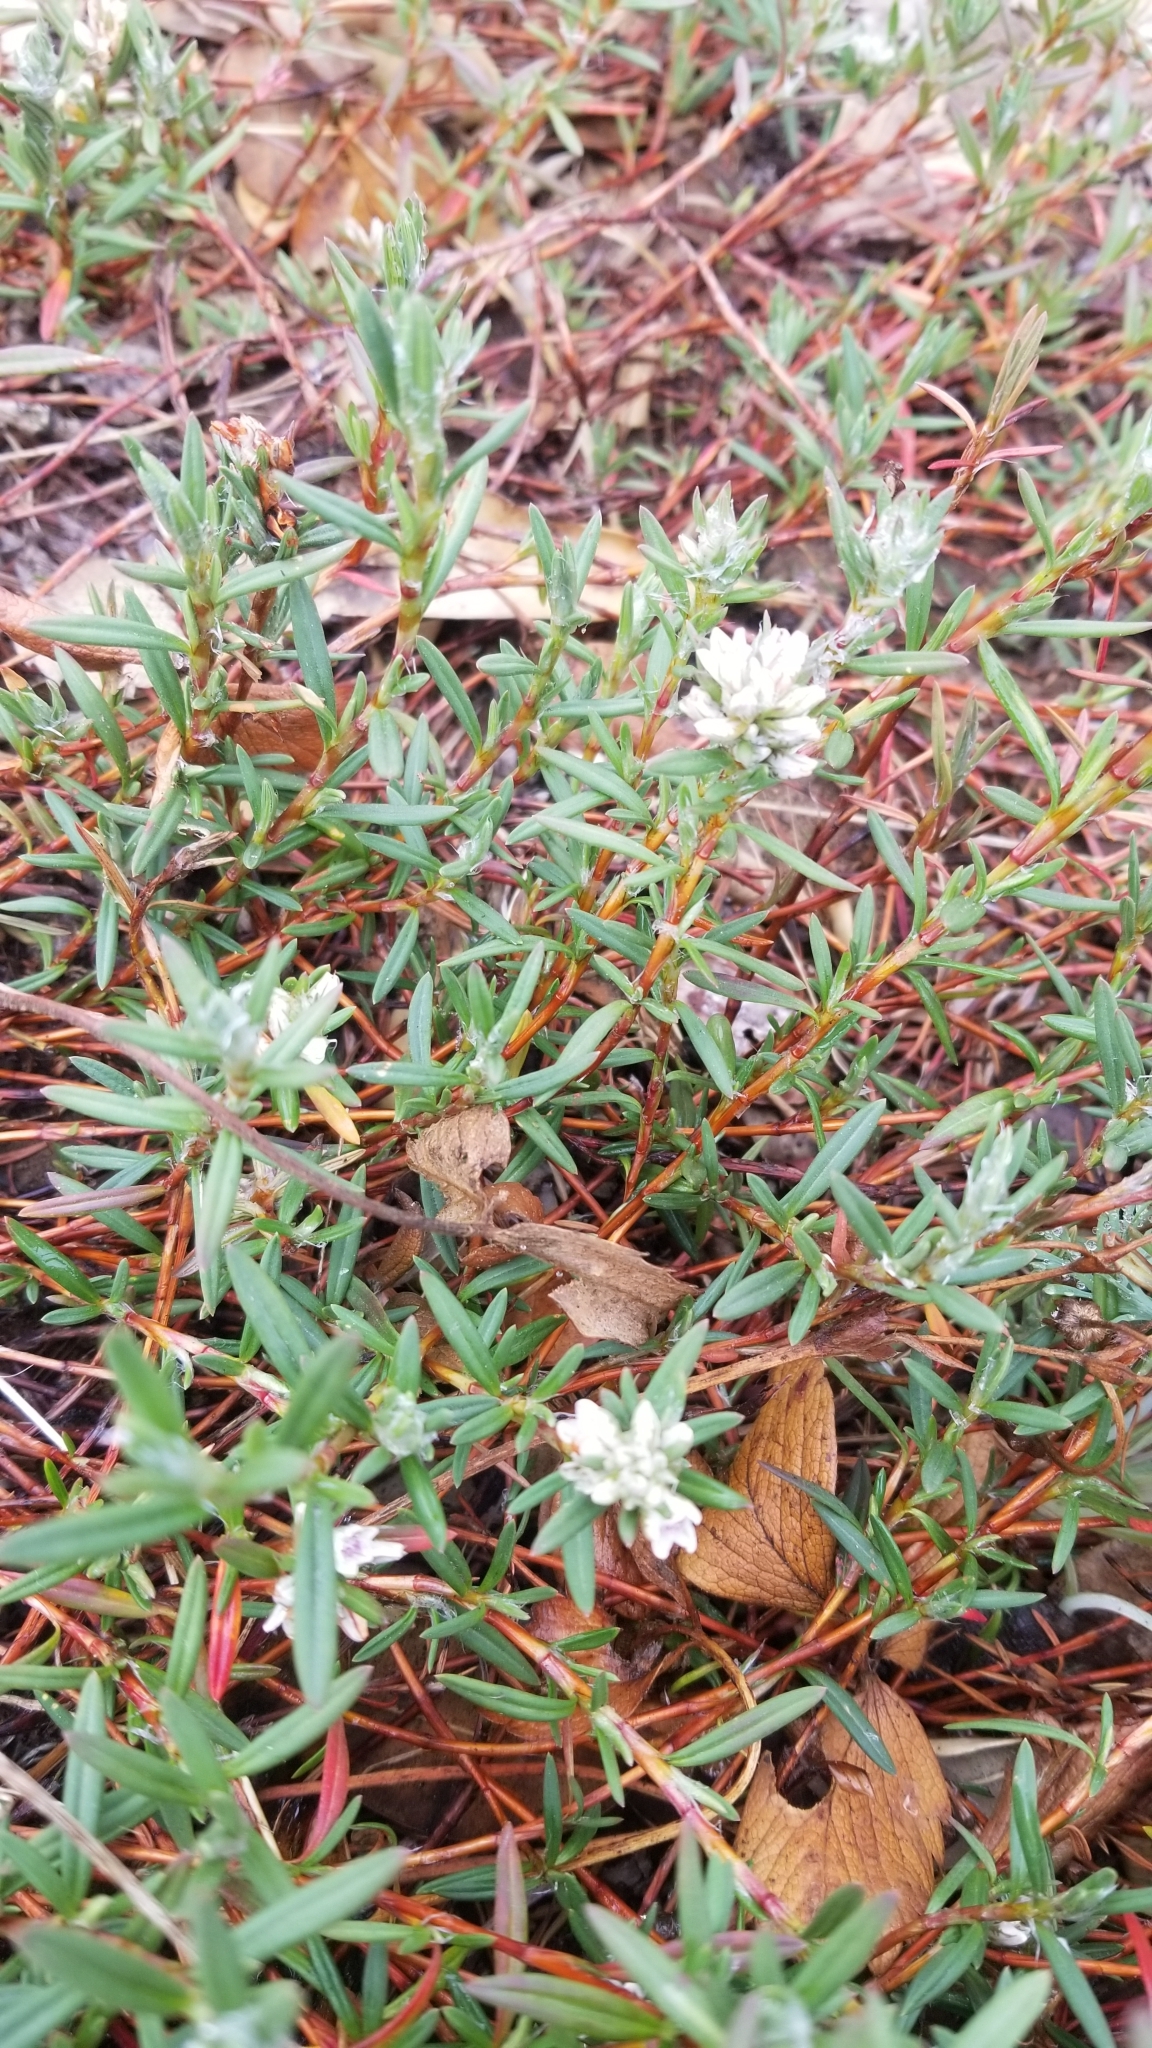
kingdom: Plantae
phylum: Tracheophyta
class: Magnoliopsida
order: Caryophyllales
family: Polygonaceae
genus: Polygonum
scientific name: Polygonum paronychia
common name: Dune knotweed
